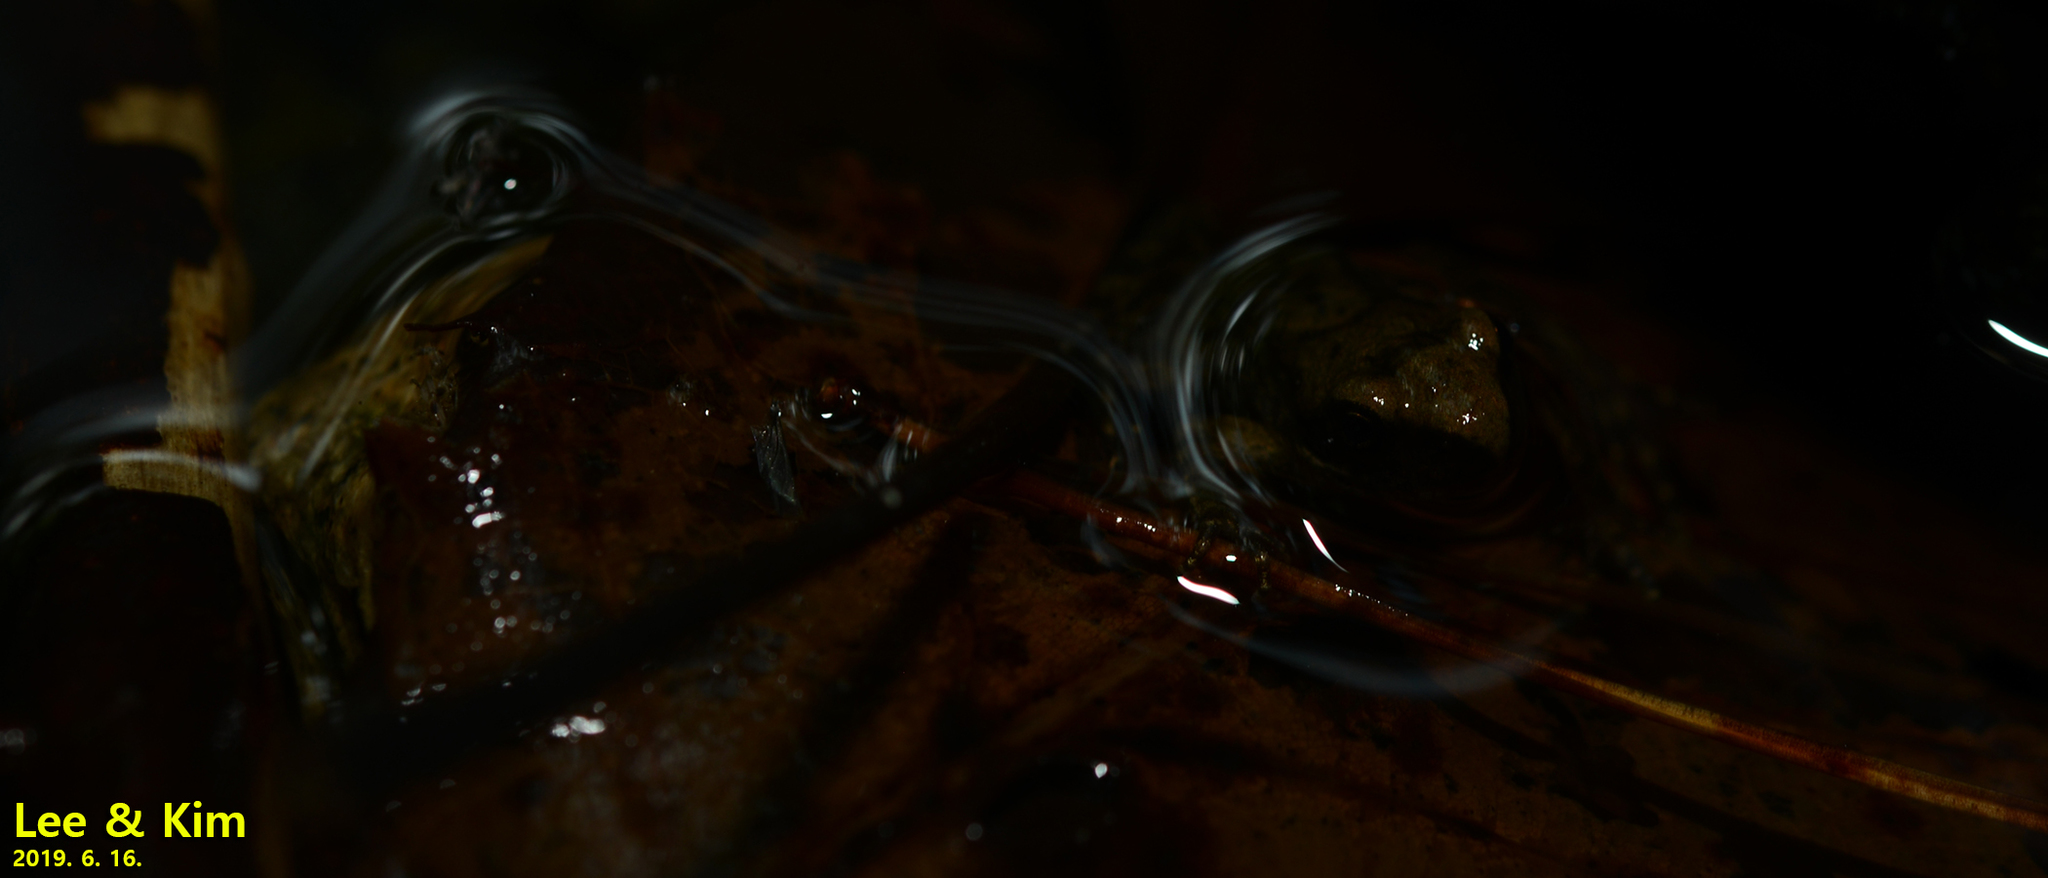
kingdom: Animalia
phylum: Chordata
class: Amphibia
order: Anura
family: Ranidae
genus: Rana
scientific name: Rana huanrenensis
